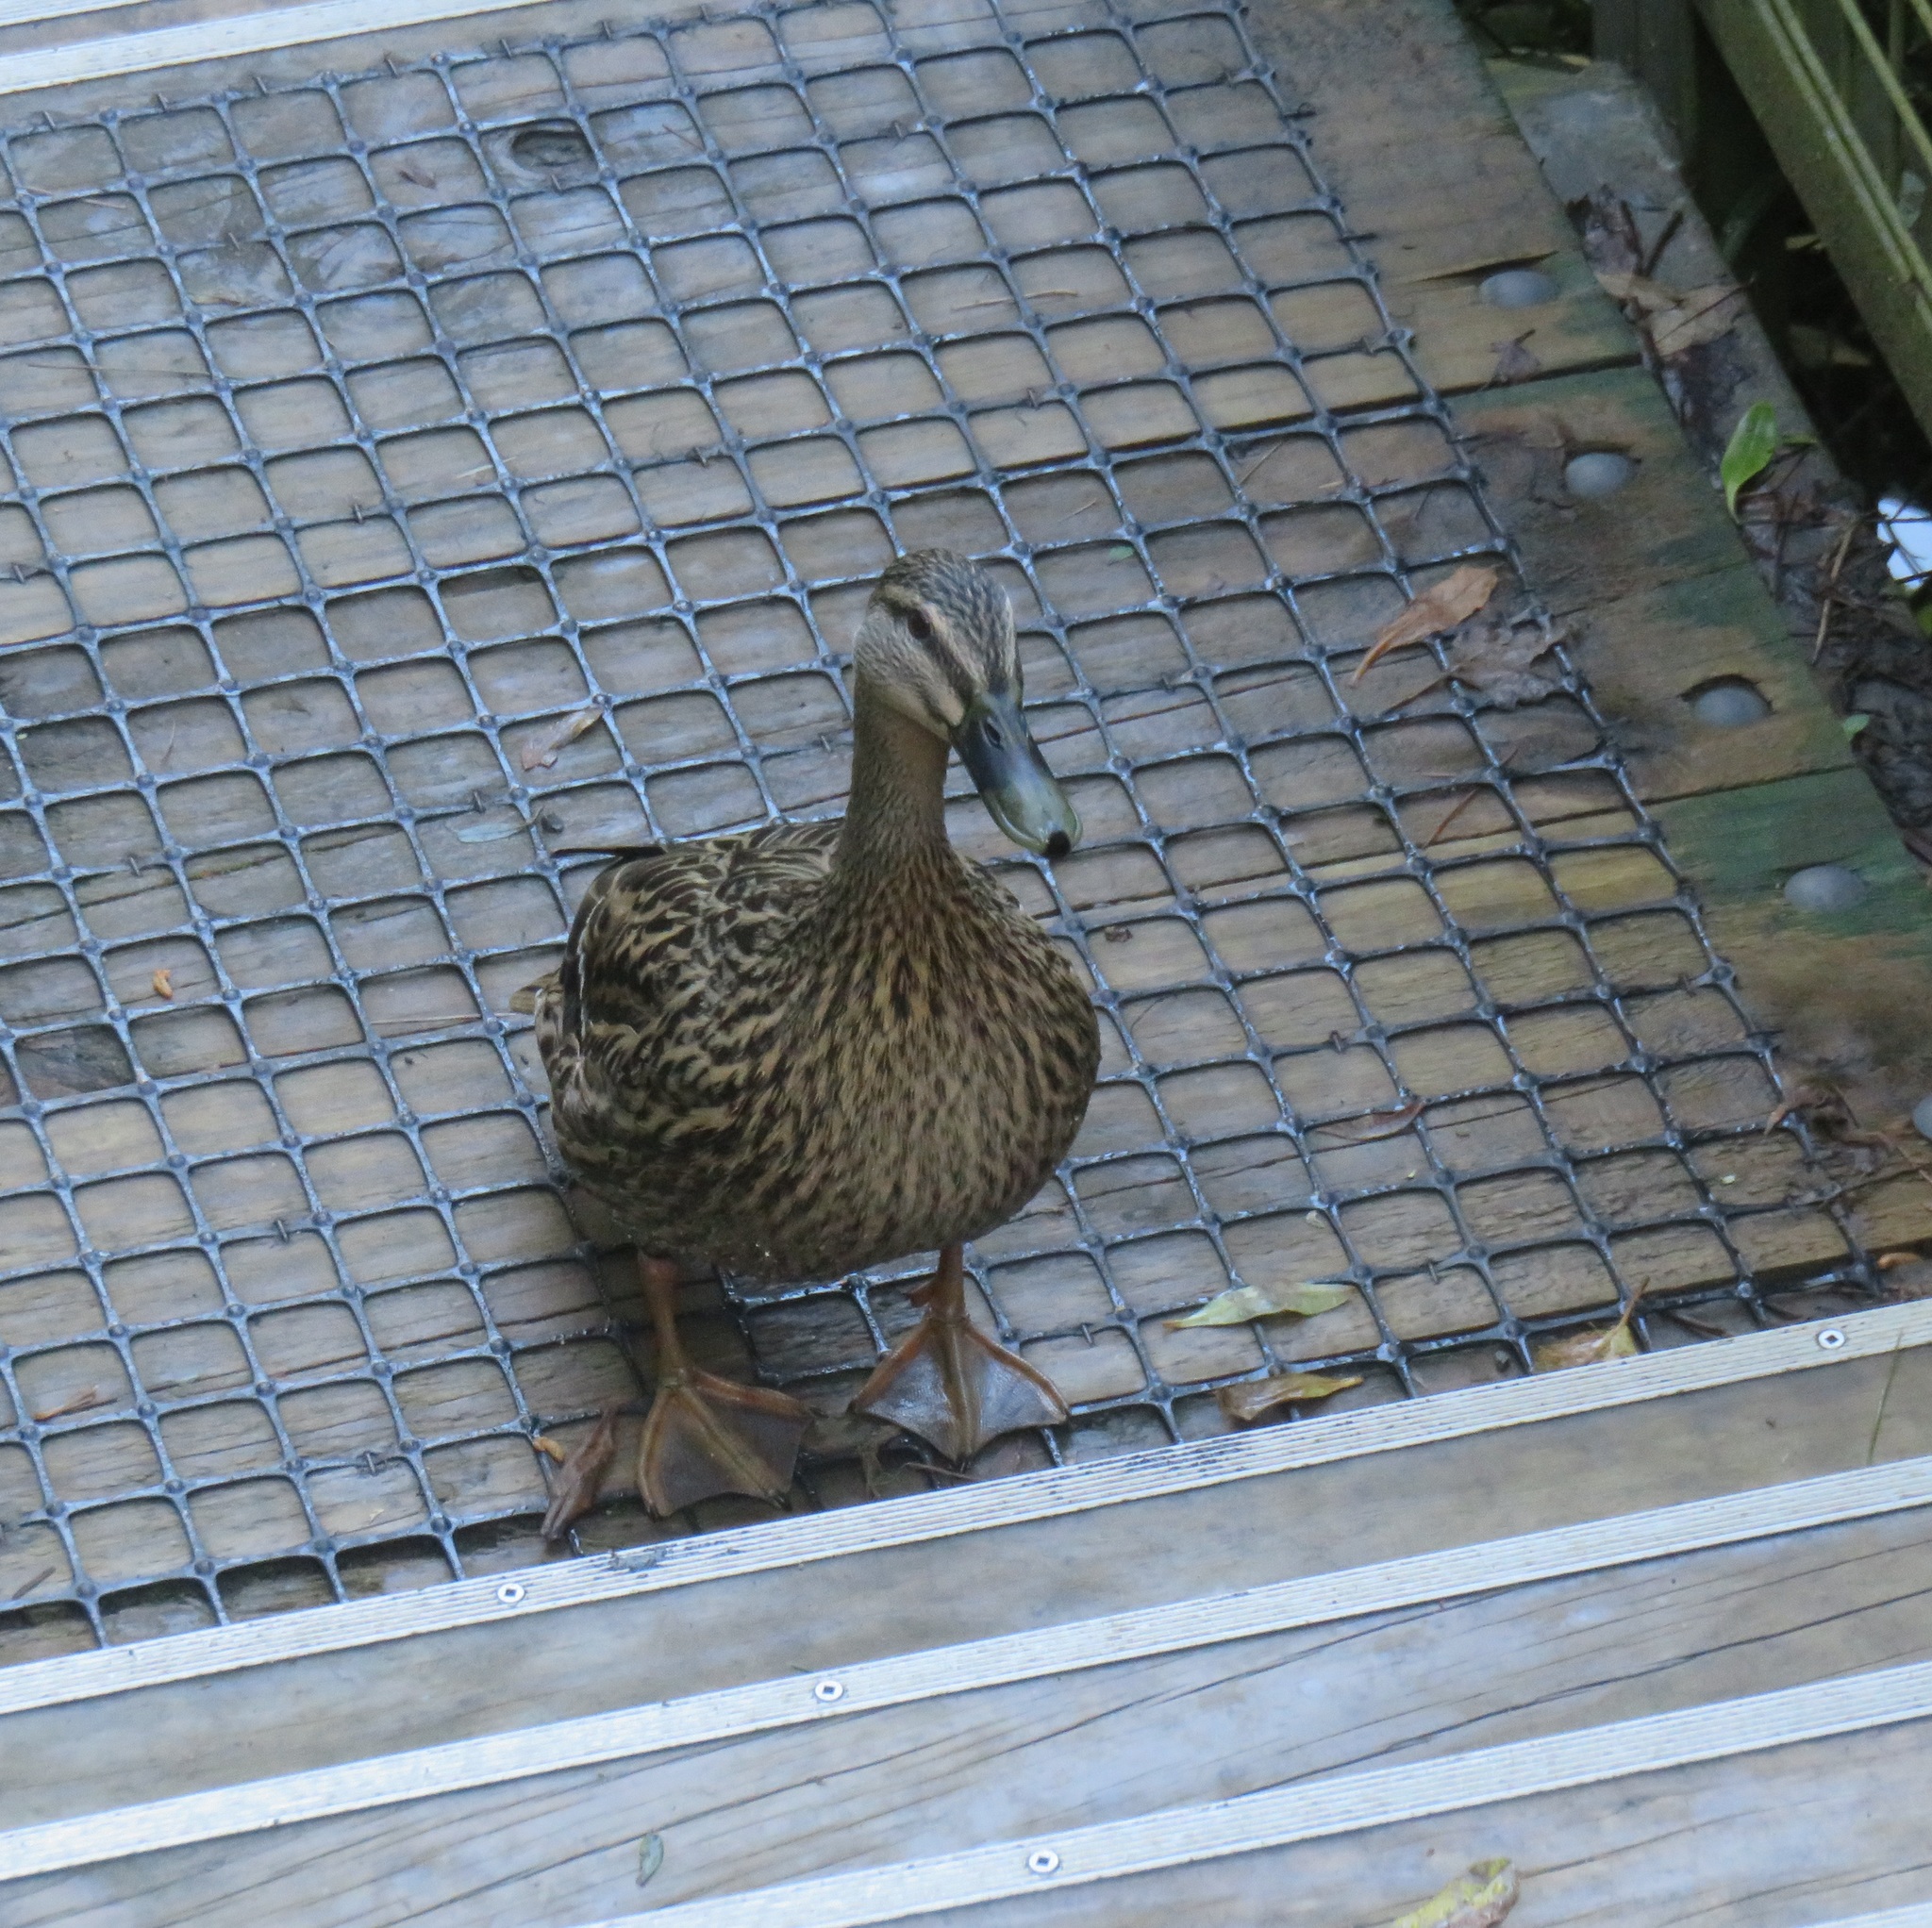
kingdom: Animalia
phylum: Chordata
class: Aves
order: Anseriformes
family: Anatidae
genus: Anas
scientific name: Anas
